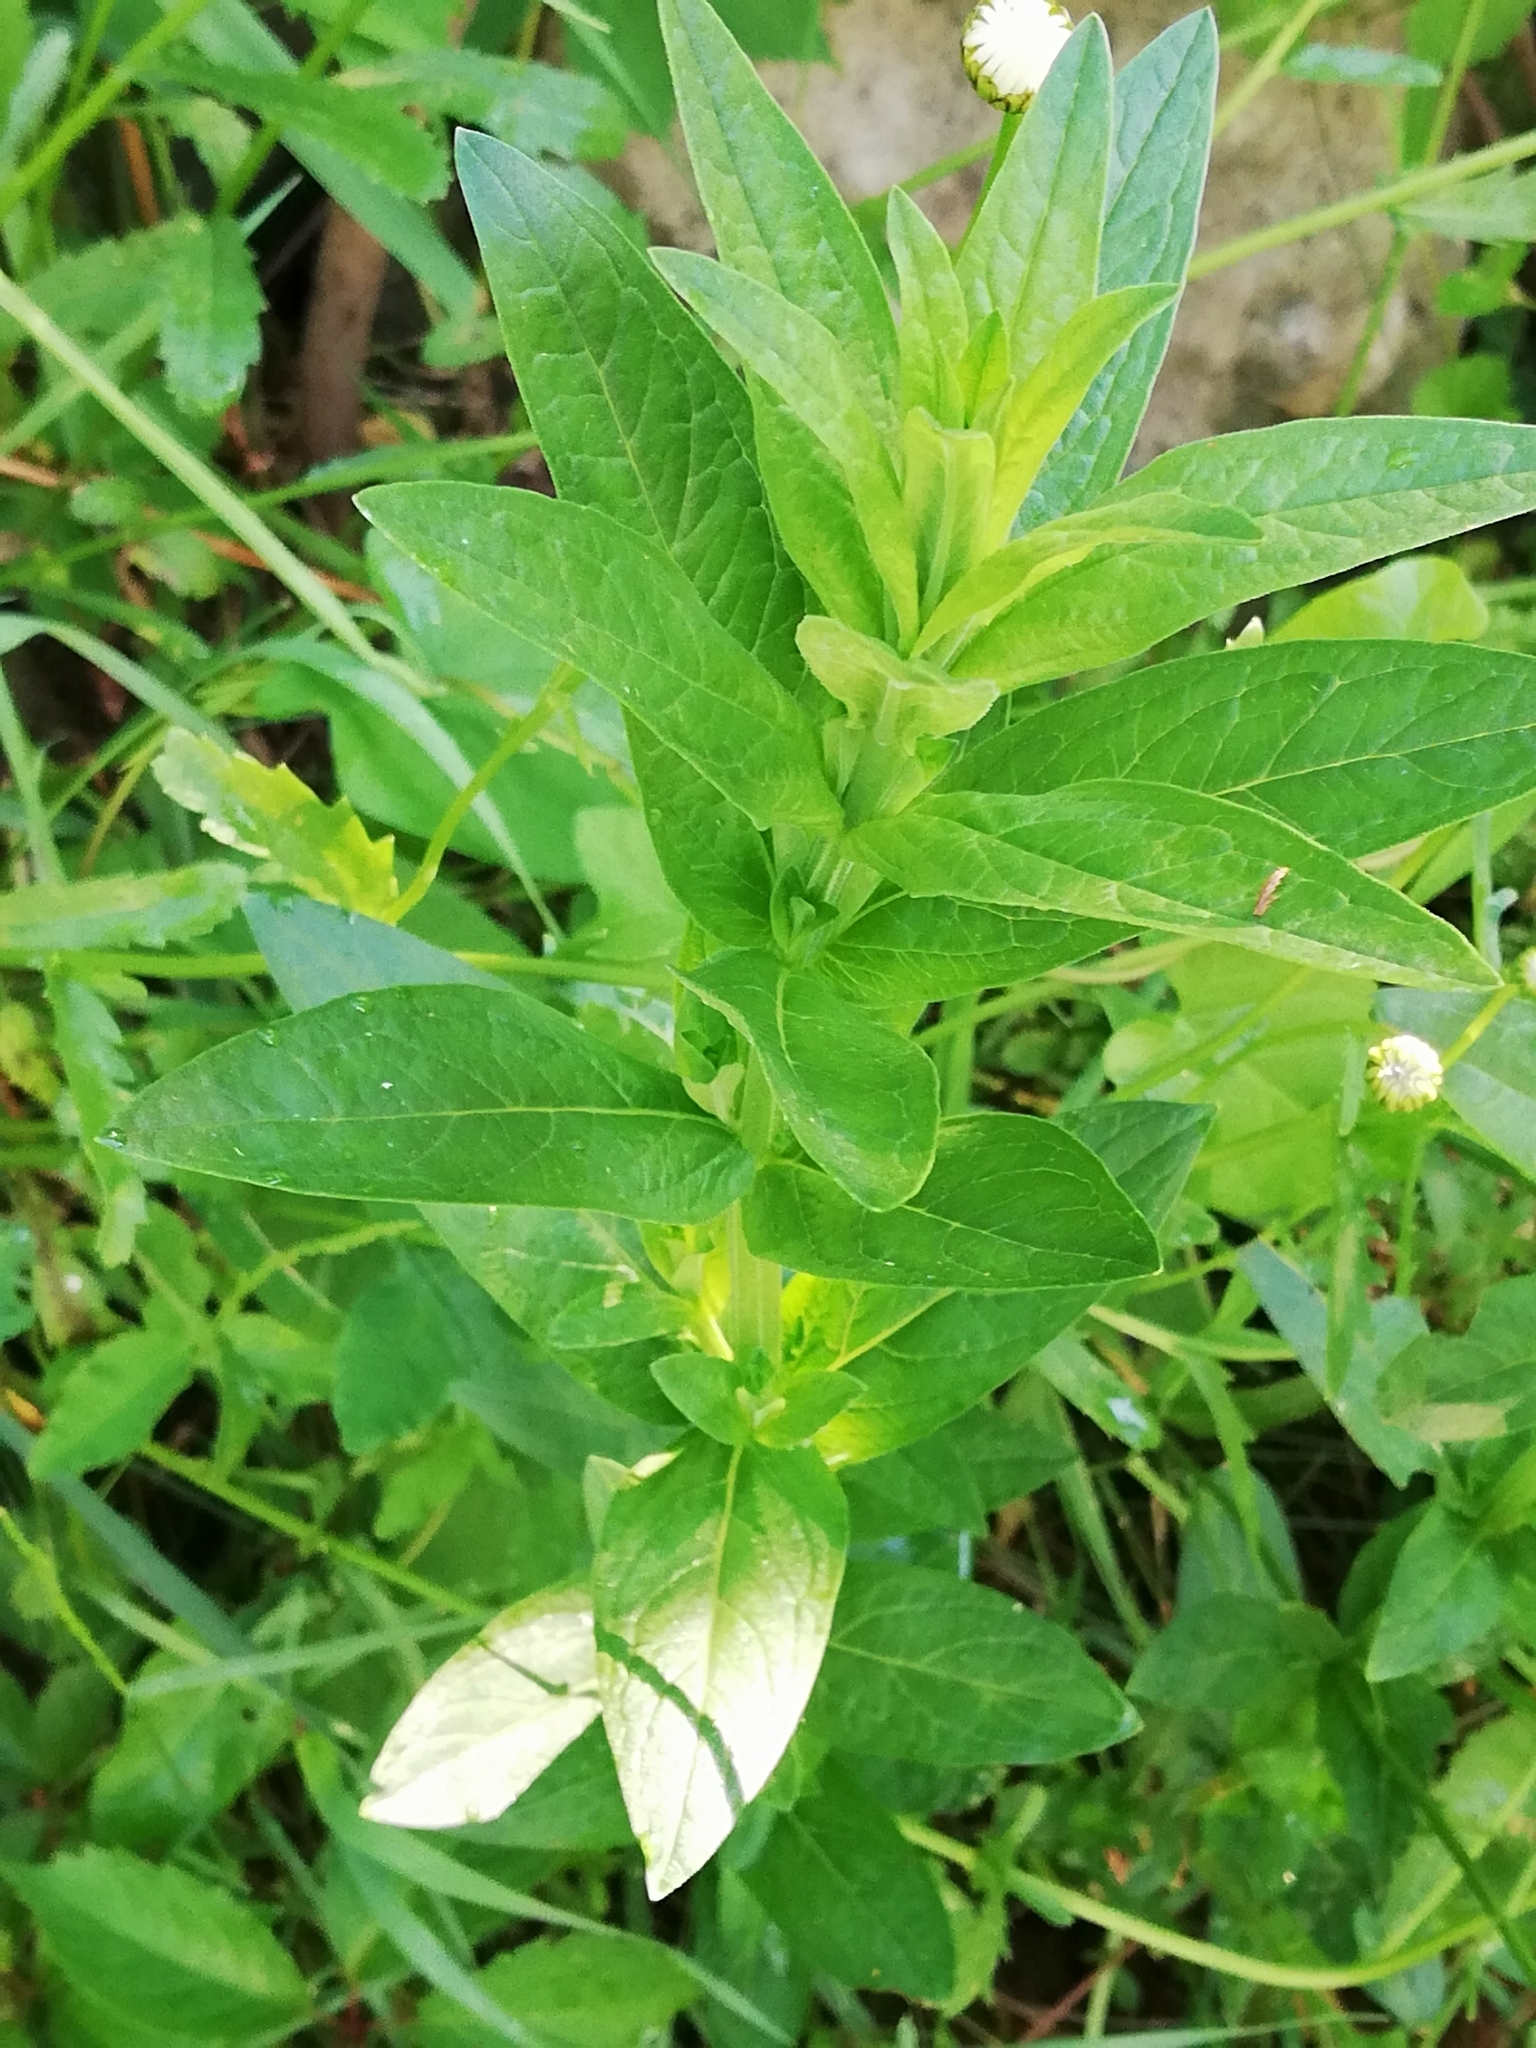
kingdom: Plantae
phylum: Tracheophyta
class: Magnoliopsida
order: Myrtales
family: Lythraceae
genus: Lythrum
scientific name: Lythrum salicaria
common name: Purple loosestrife
